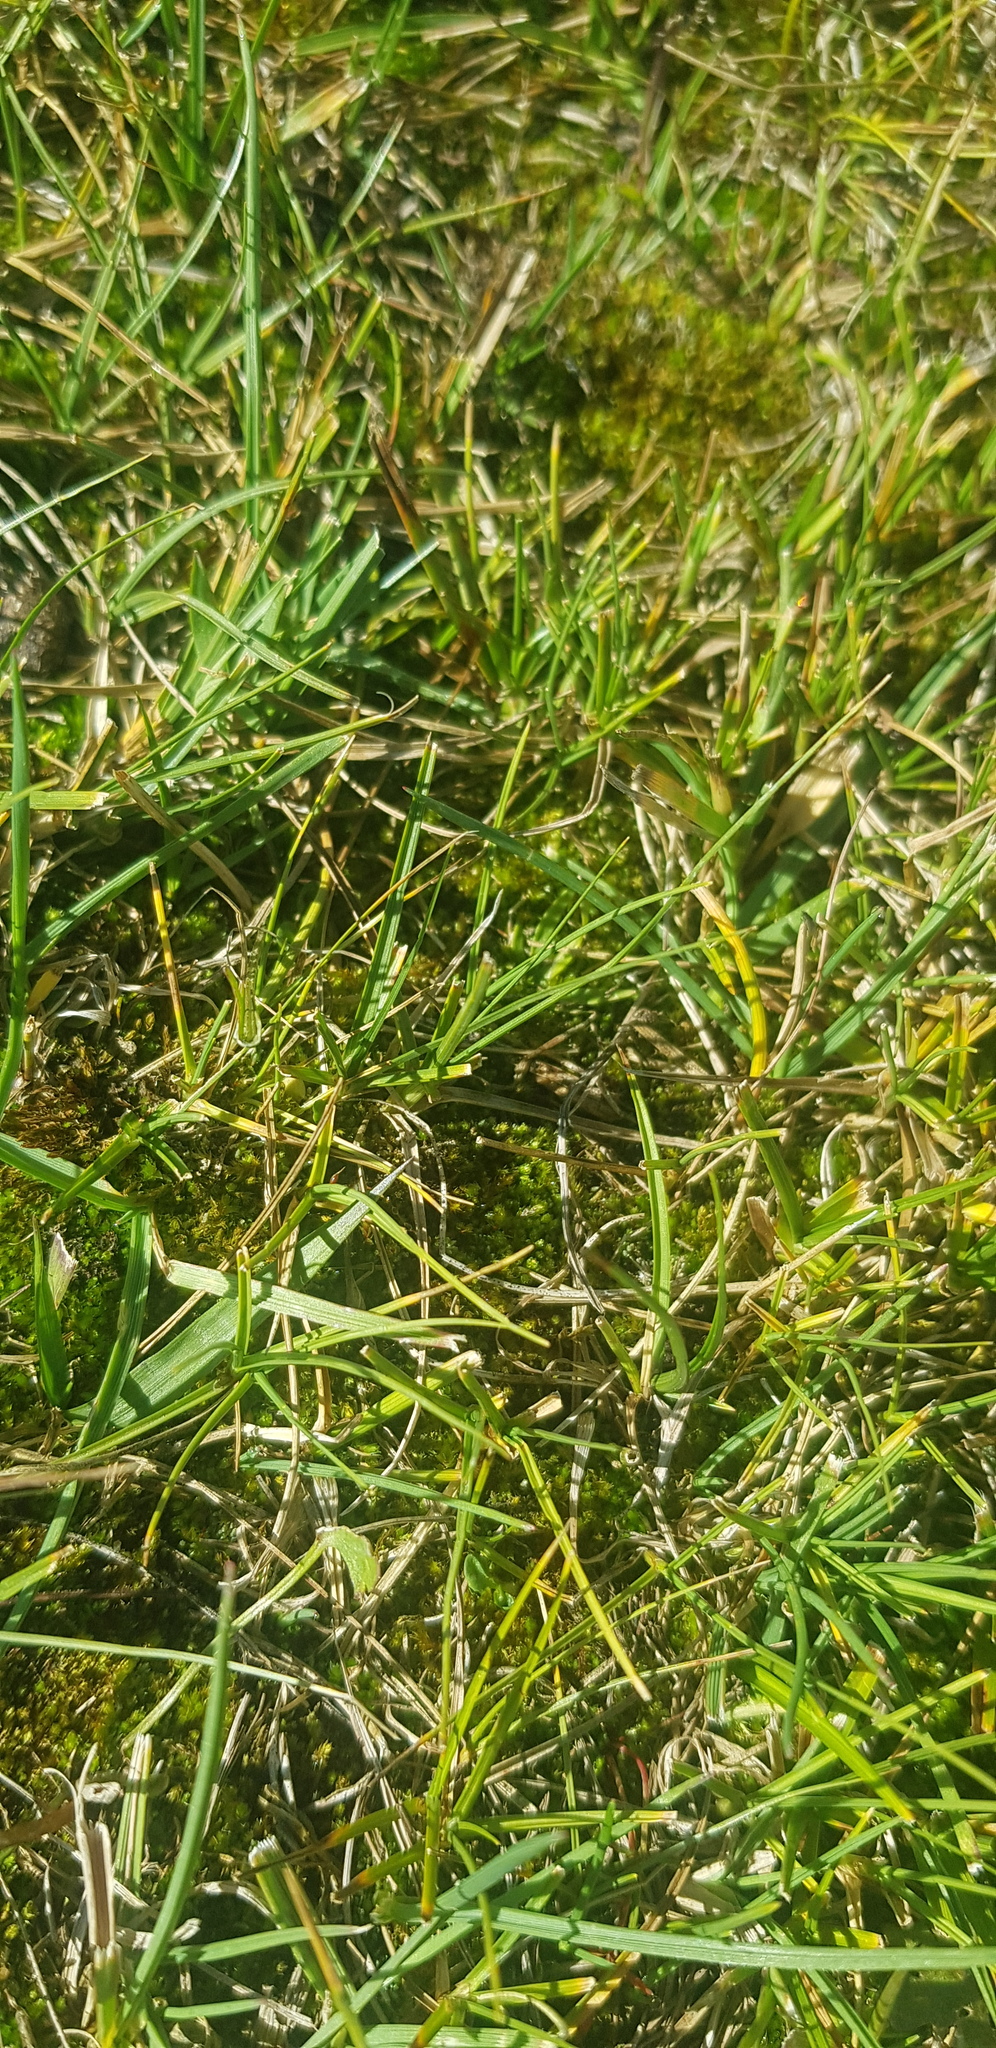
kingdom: Plantae
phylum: Tracheophyta
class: Liliopsida
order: Poales
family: Cyperaceae
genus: Carex
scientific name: Carex duriuscula
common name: Involute-leaved sedge
